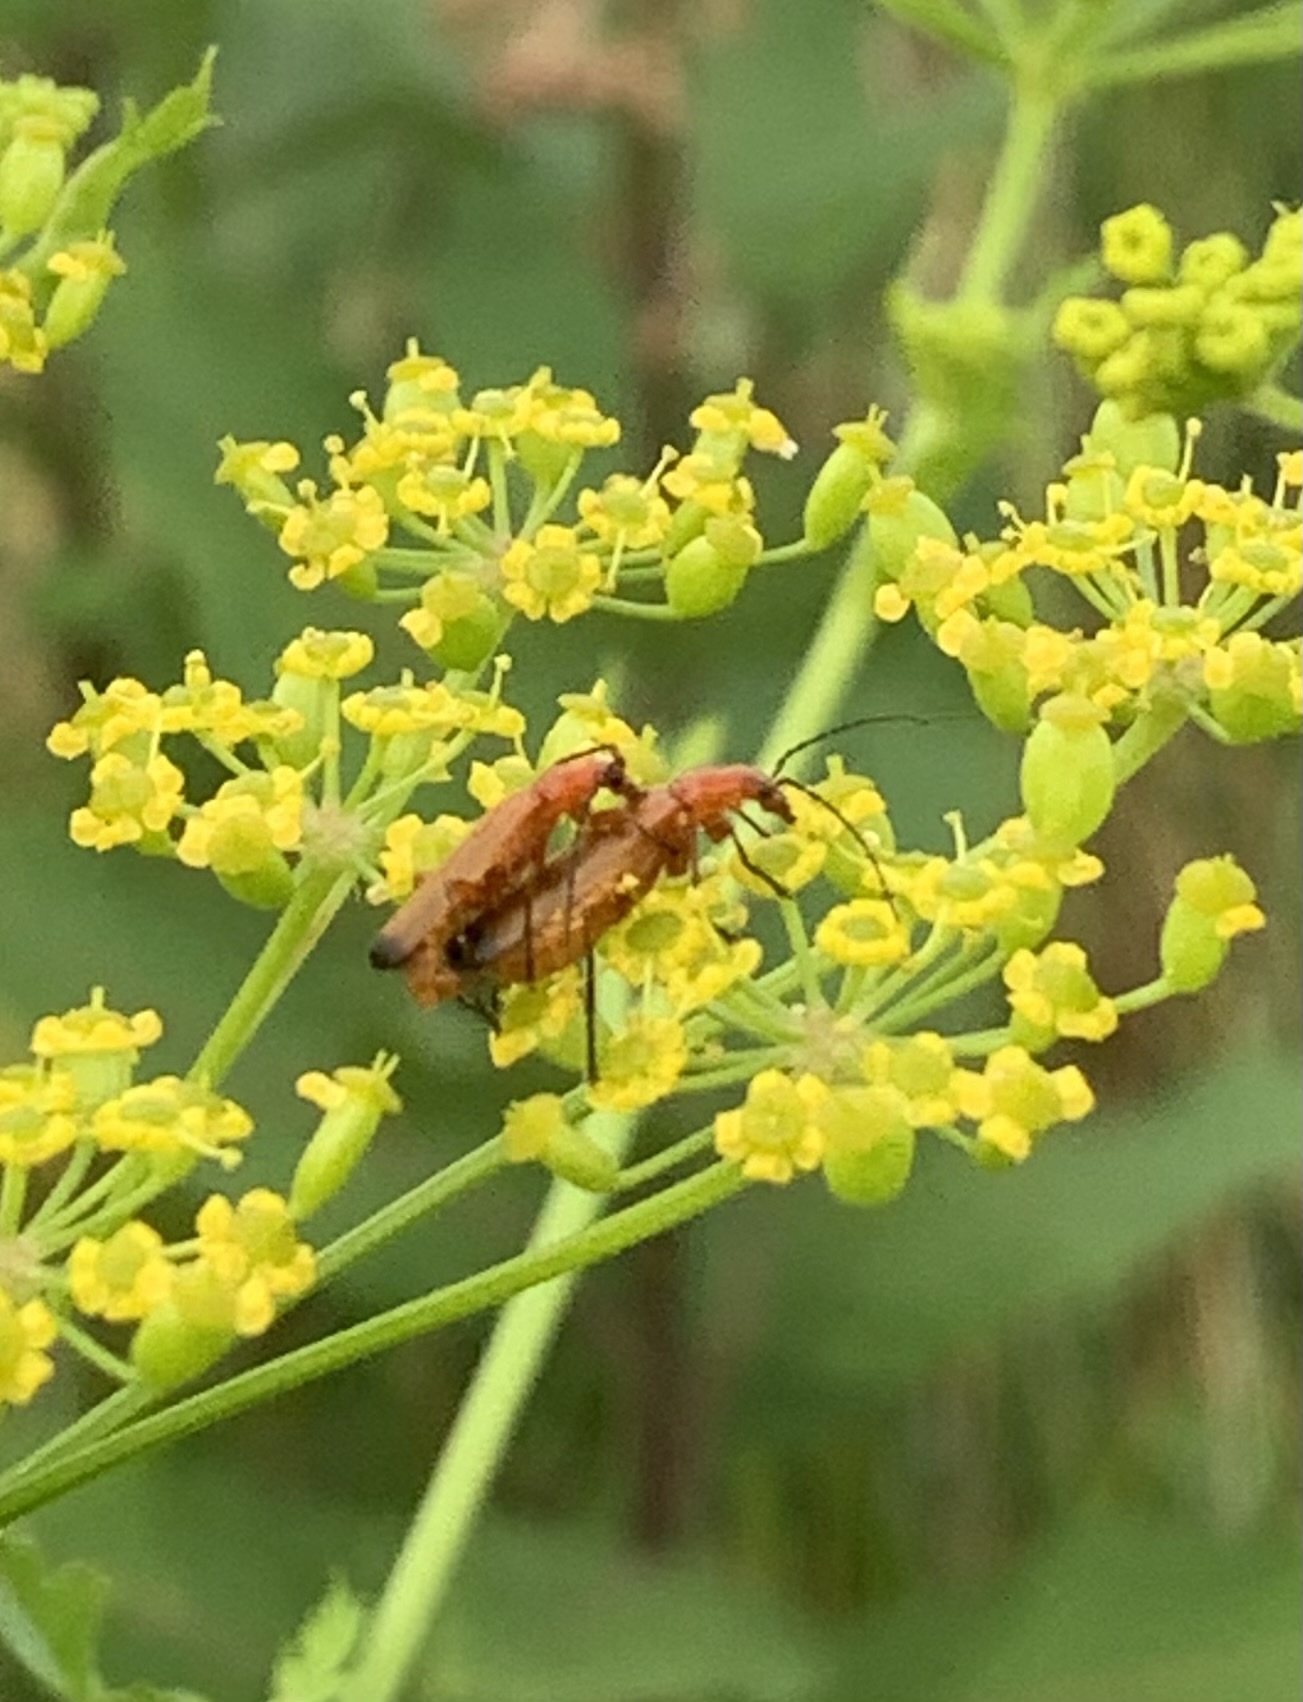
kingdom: Animalia
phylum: Arthropoda
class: Insecta
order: Coleoptera
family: Cantharidae
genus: Rhagonycha
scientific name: Rhagonycha fulva
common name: Common red soldier beetle
